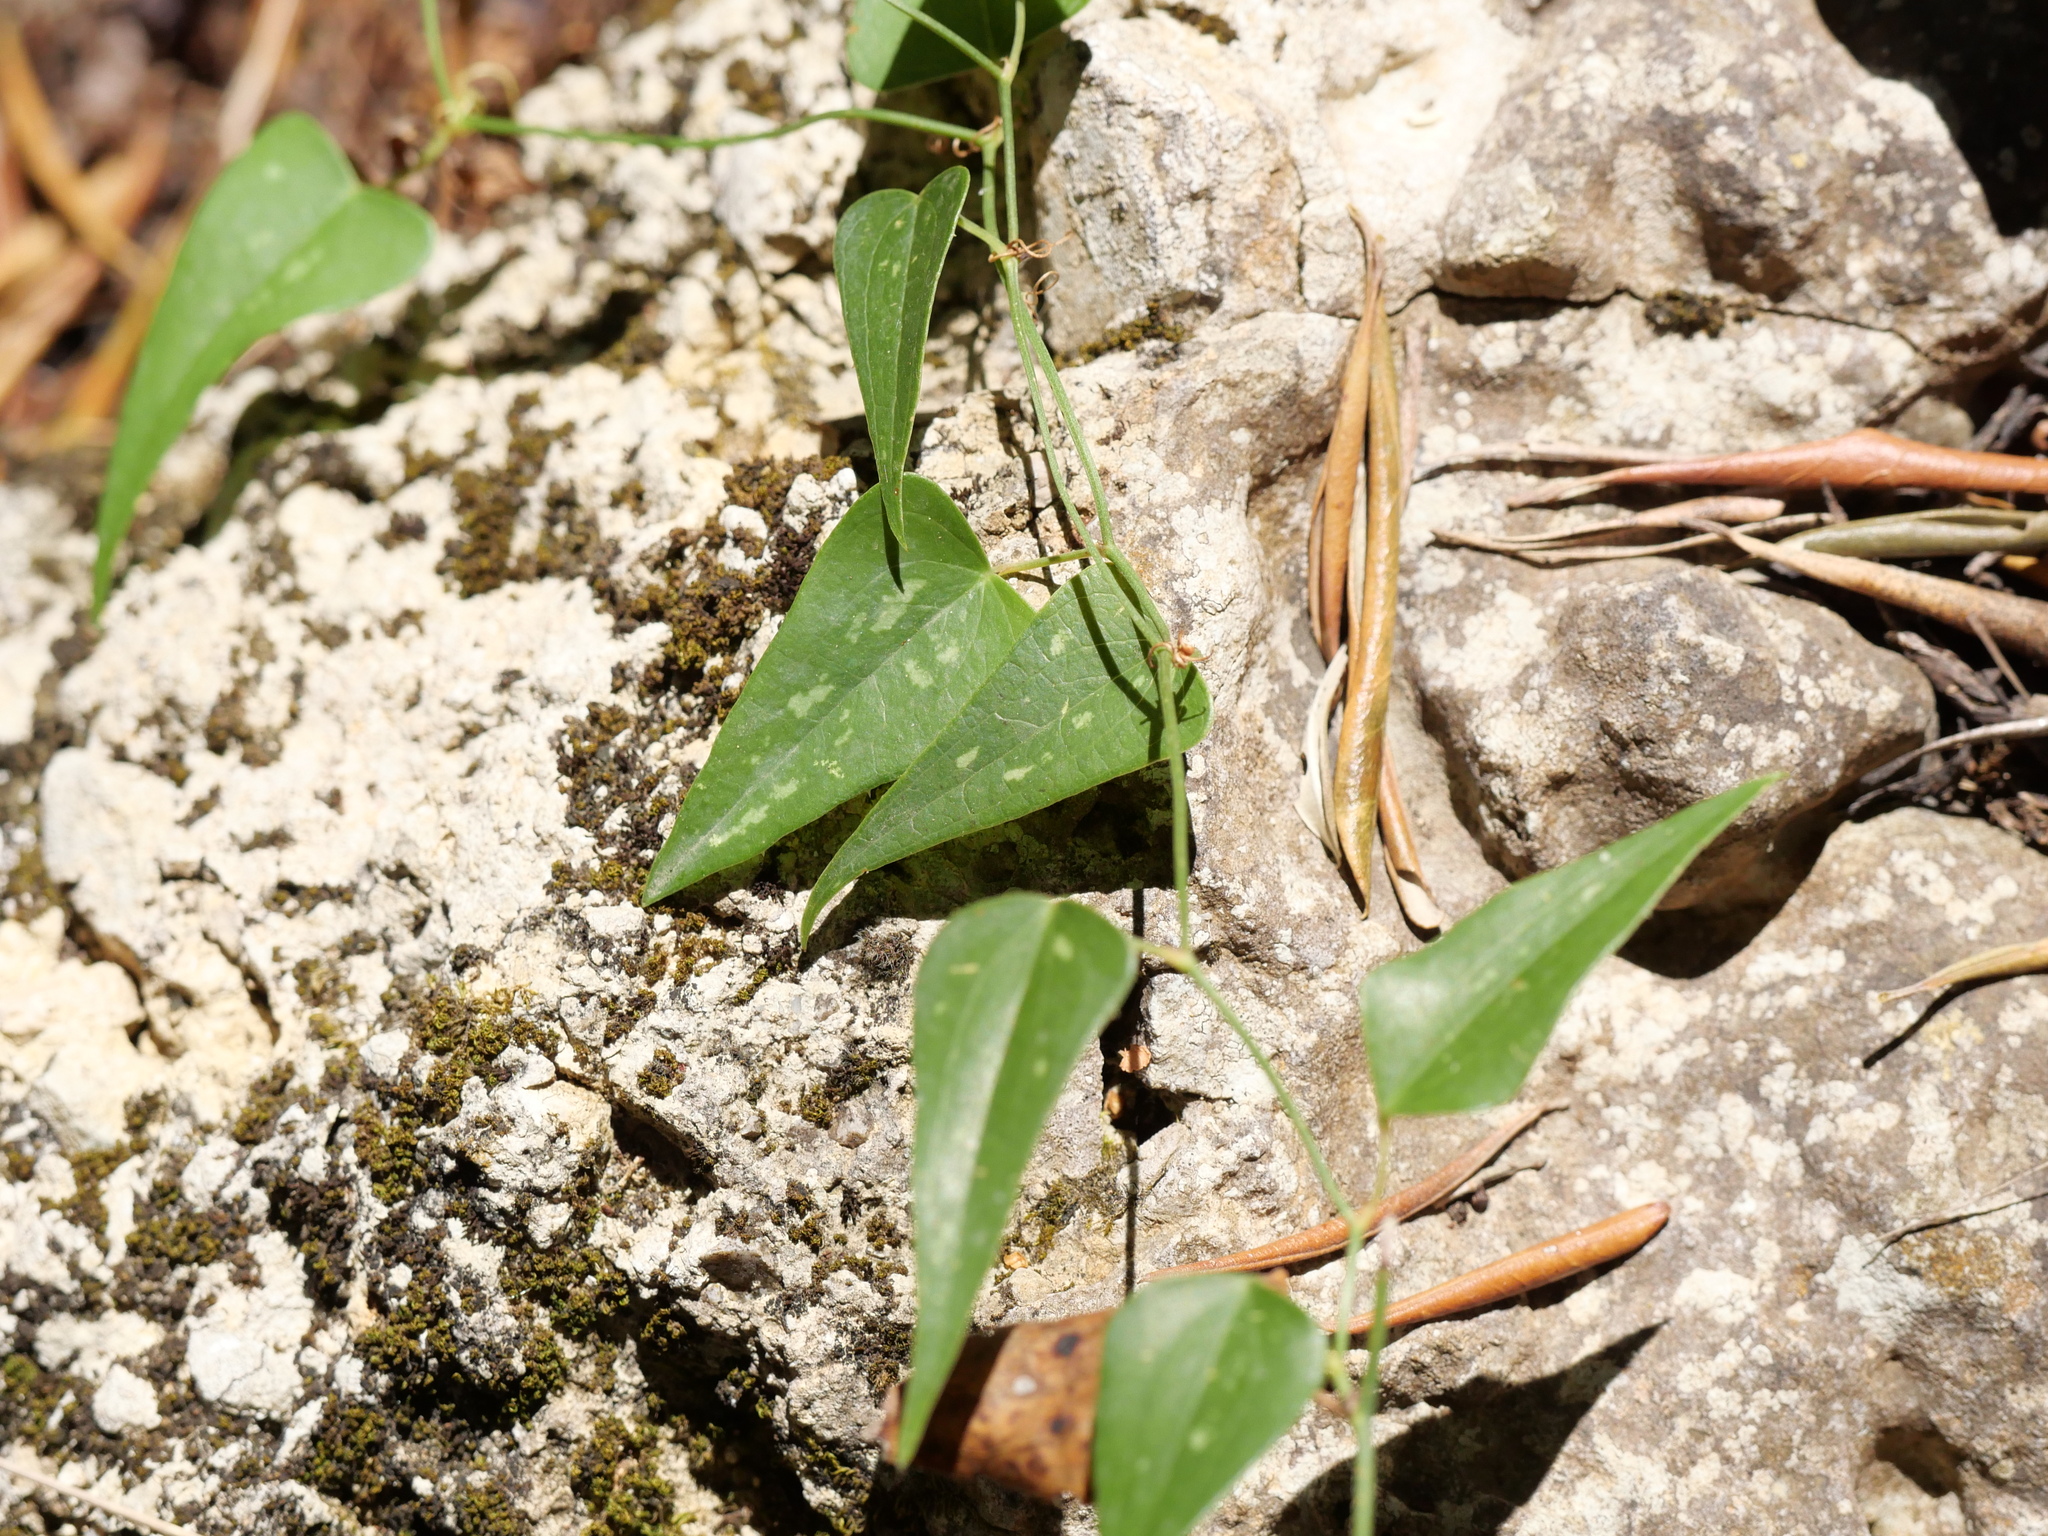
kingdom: Plantae
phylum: Tracheophyta
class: Liliopsida
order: Liliales
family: Smilacaceae
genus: Smilax
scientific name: Smilax aspera
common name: Common smilax
